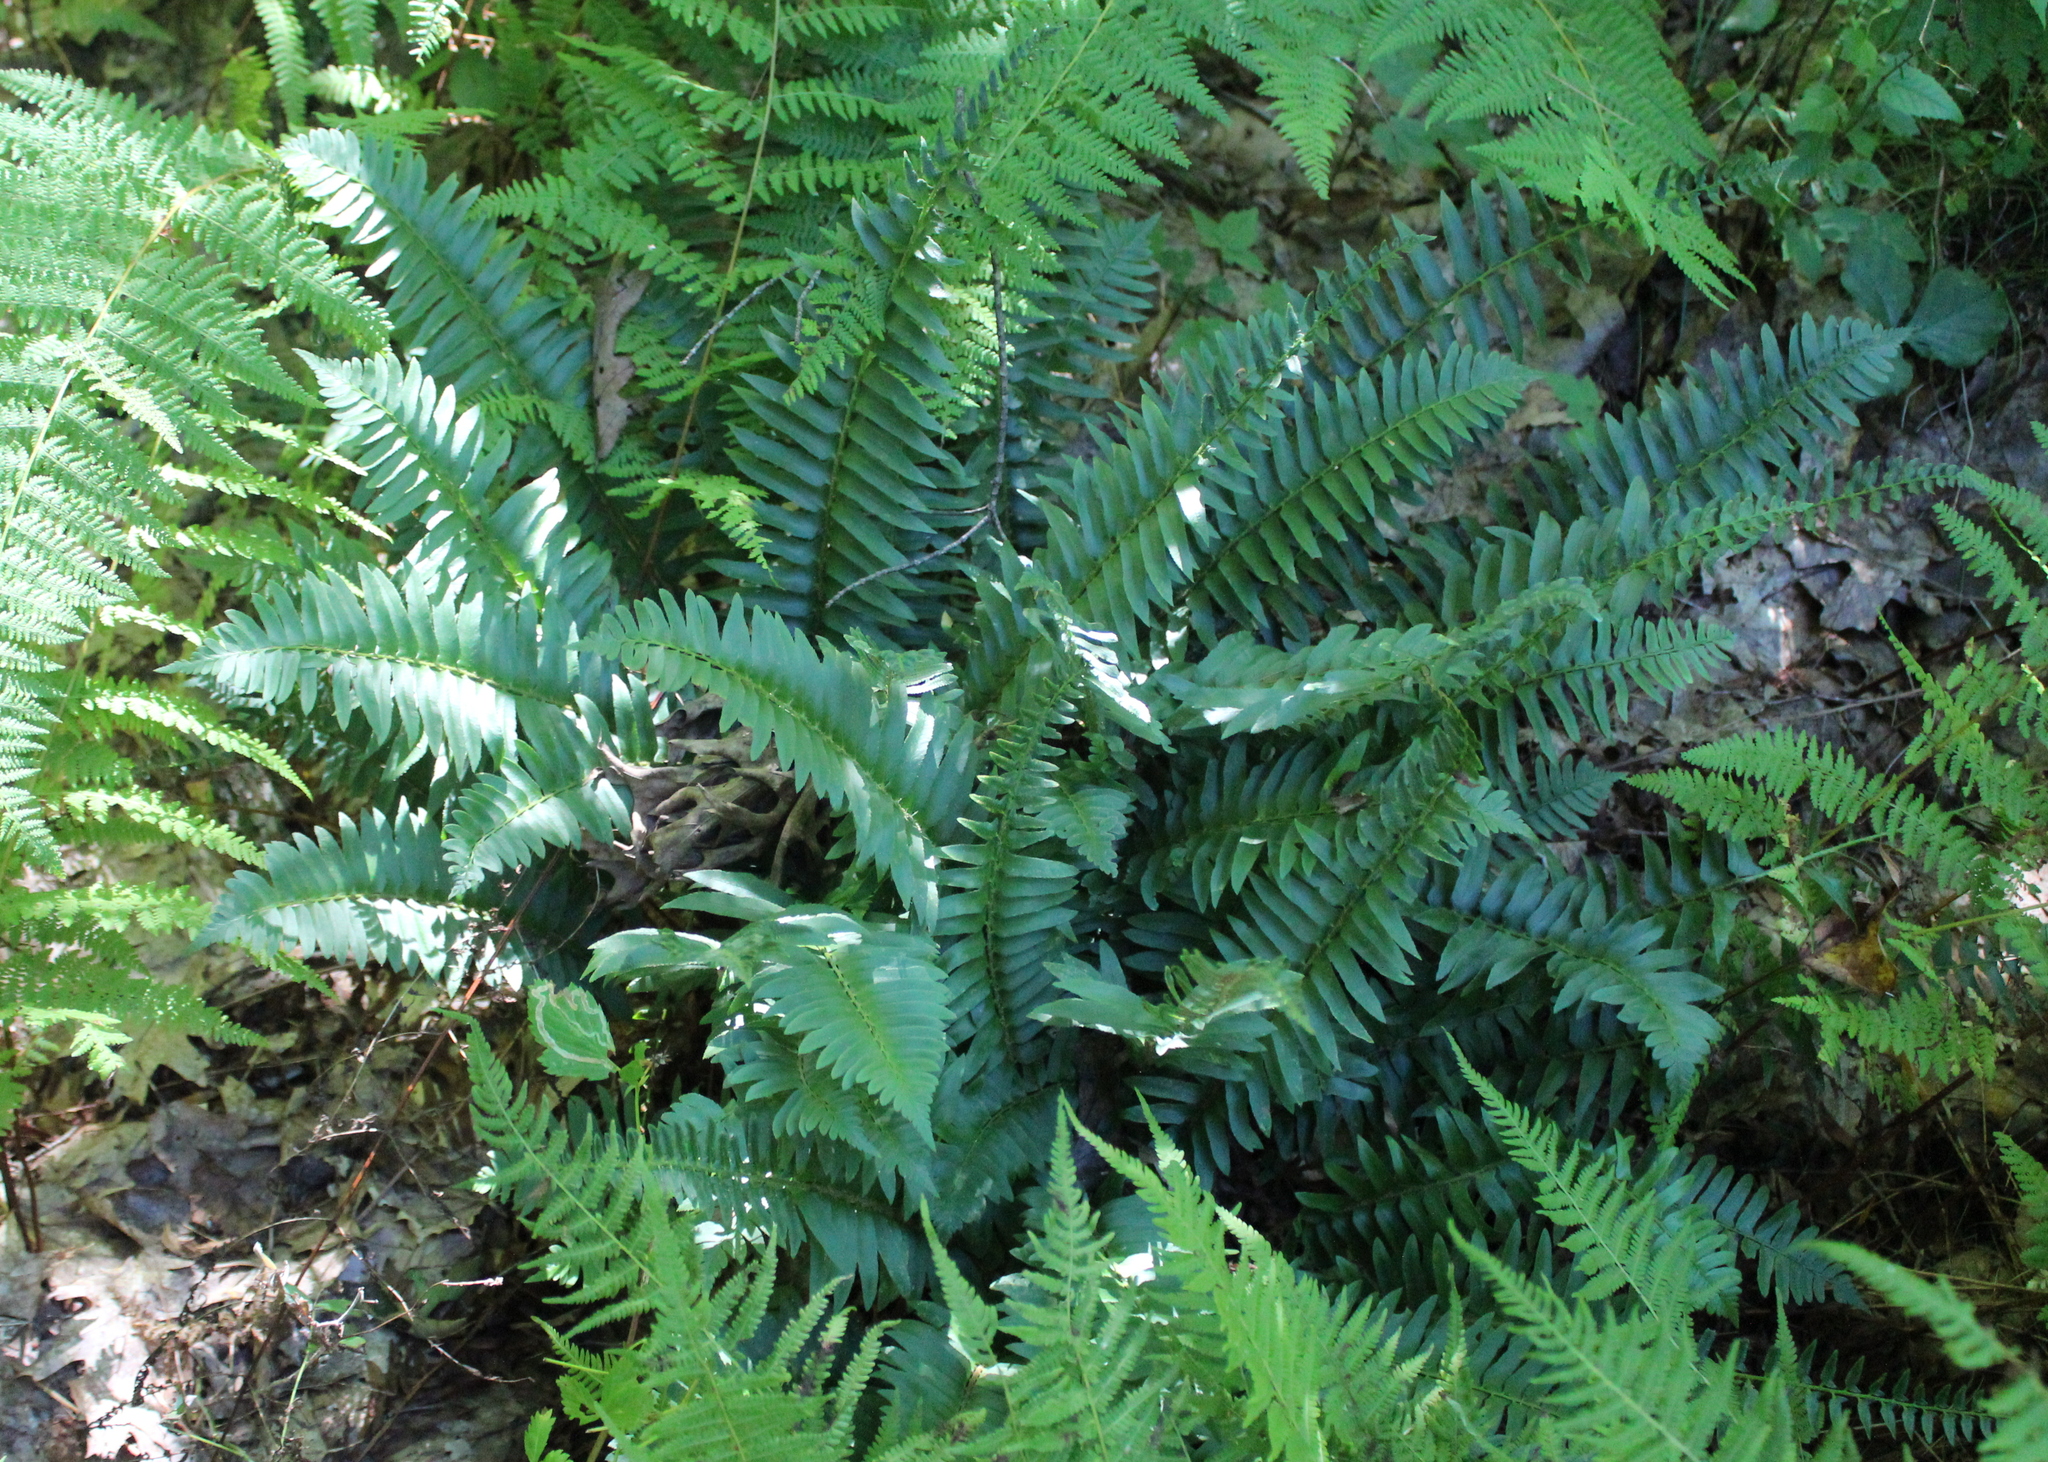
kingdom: Plantae
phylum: Tracheophyta
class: Polypodiopsida
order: Polypodiales
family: Dryopteridaceae
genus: Polystichum
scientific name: Polystichum acrostichoides
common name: Christmas fern
